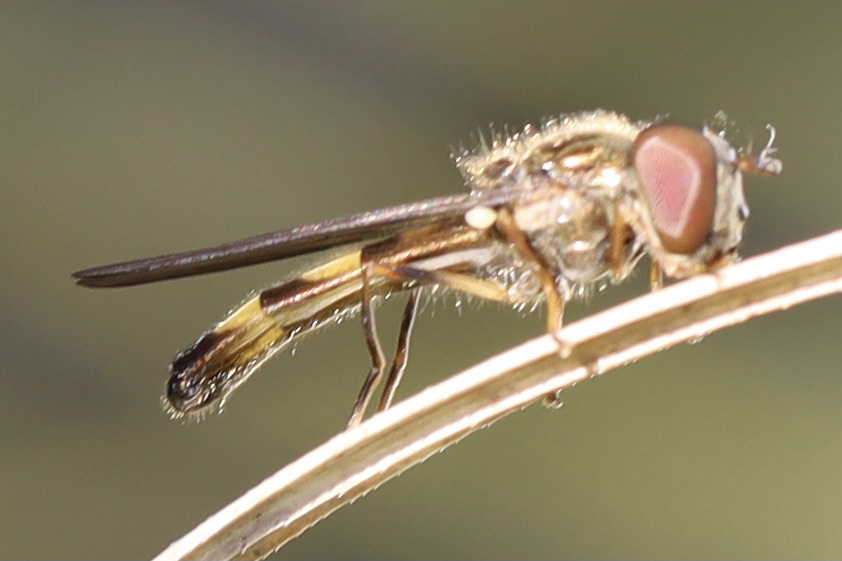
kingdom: Animalia
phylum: Arthropoda
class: Insecta
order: Diptera
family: Syrphidae
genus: Melanostoma
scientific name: Melanostoma mellina
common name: Hover fly
